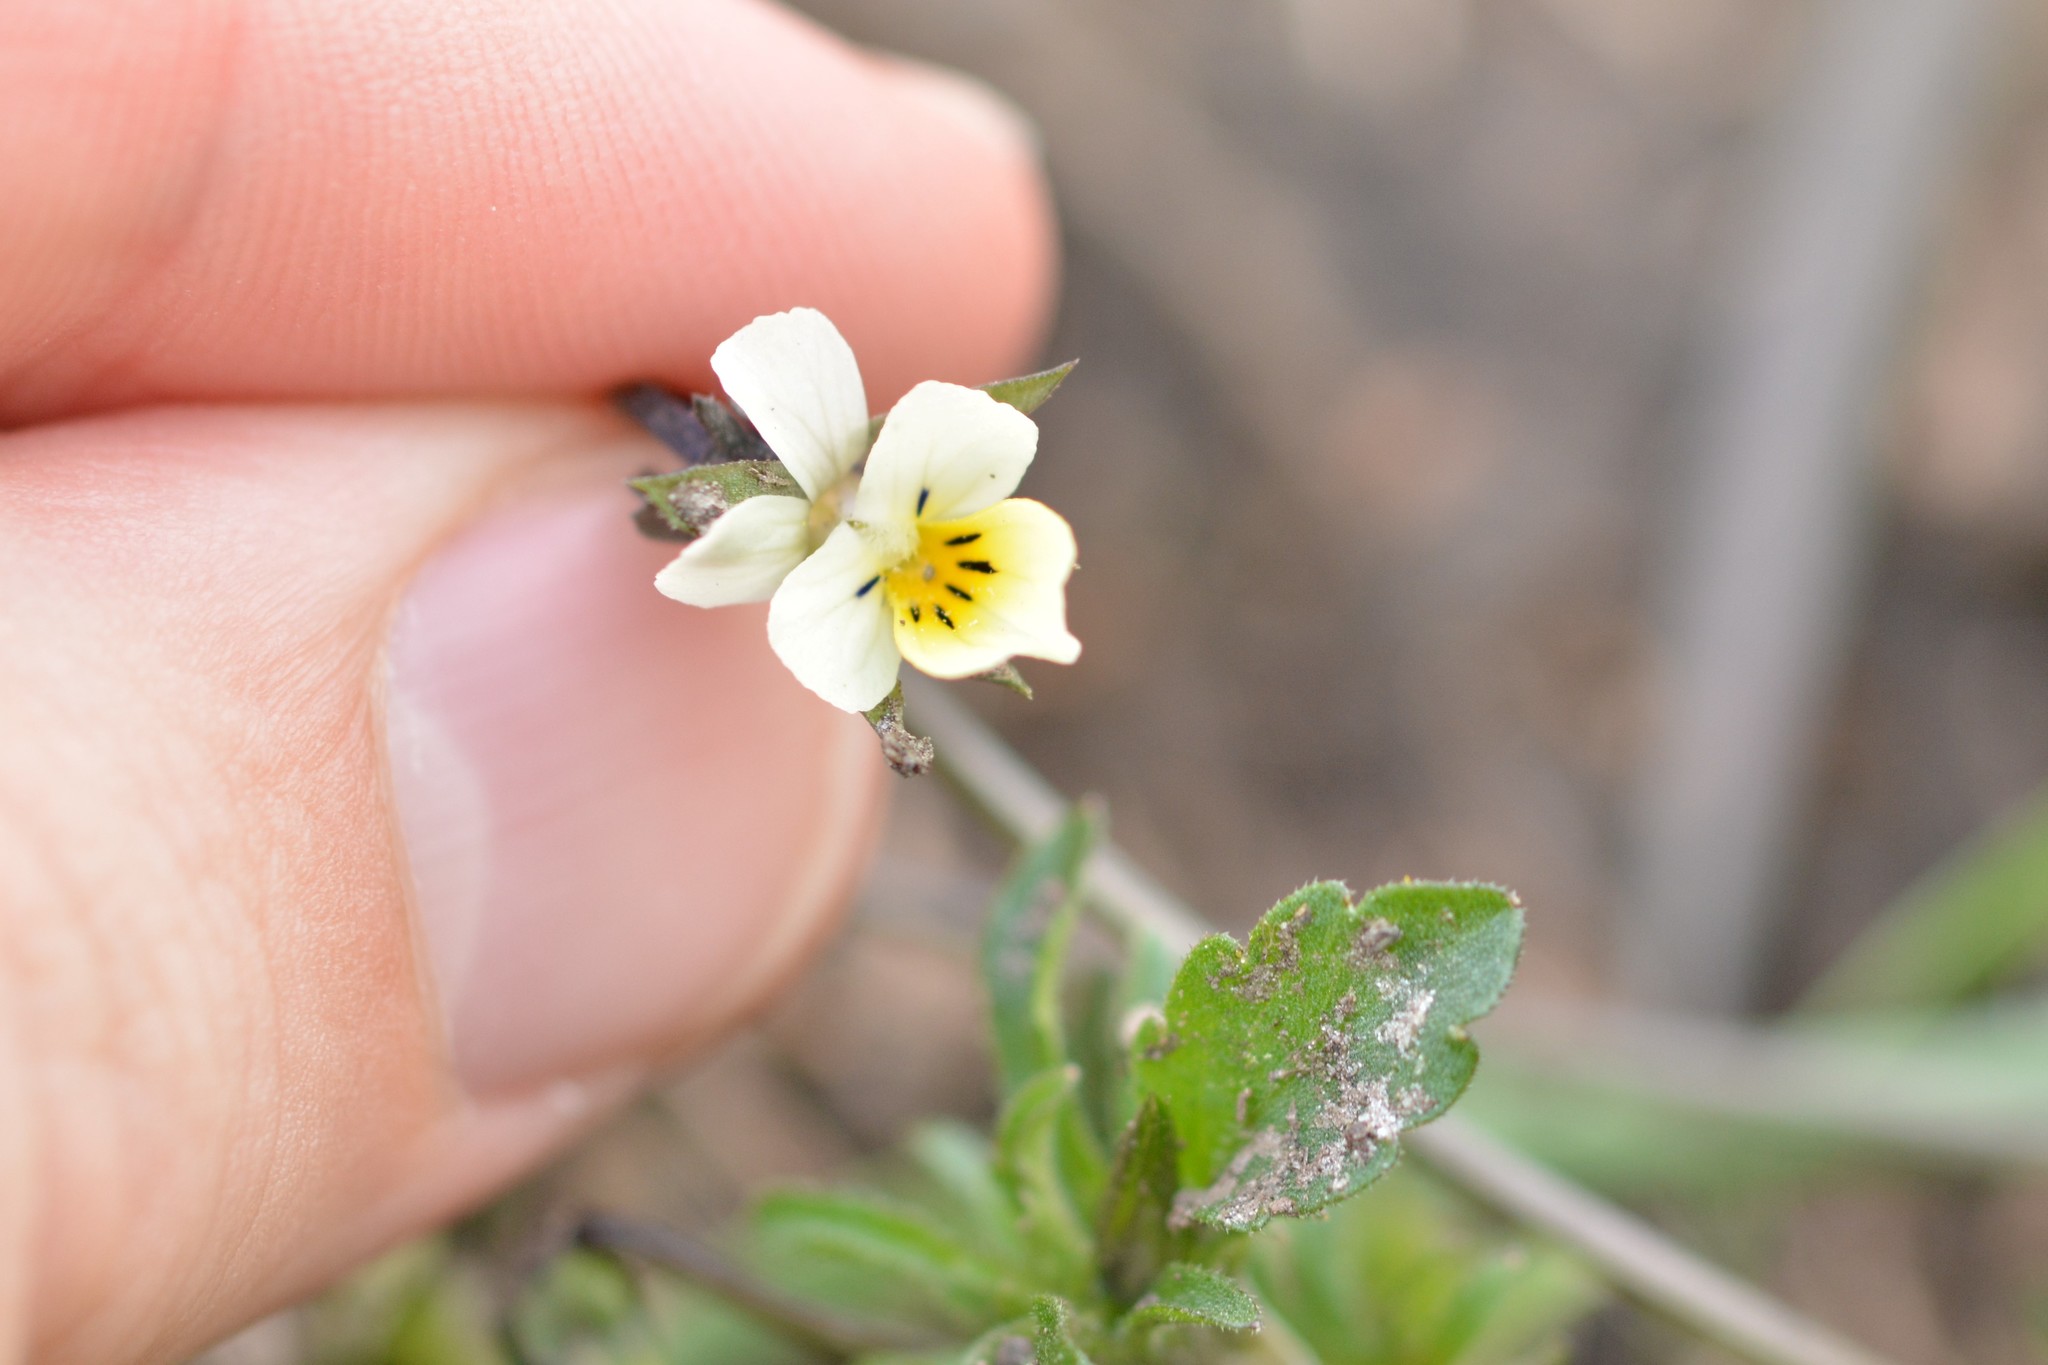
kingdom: Plantae
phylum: Tracheophyta
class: Magnoliopsida
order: Malpighiales
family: Violaceae
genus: Viola
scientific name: Viola arvensis
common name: Field pansy
